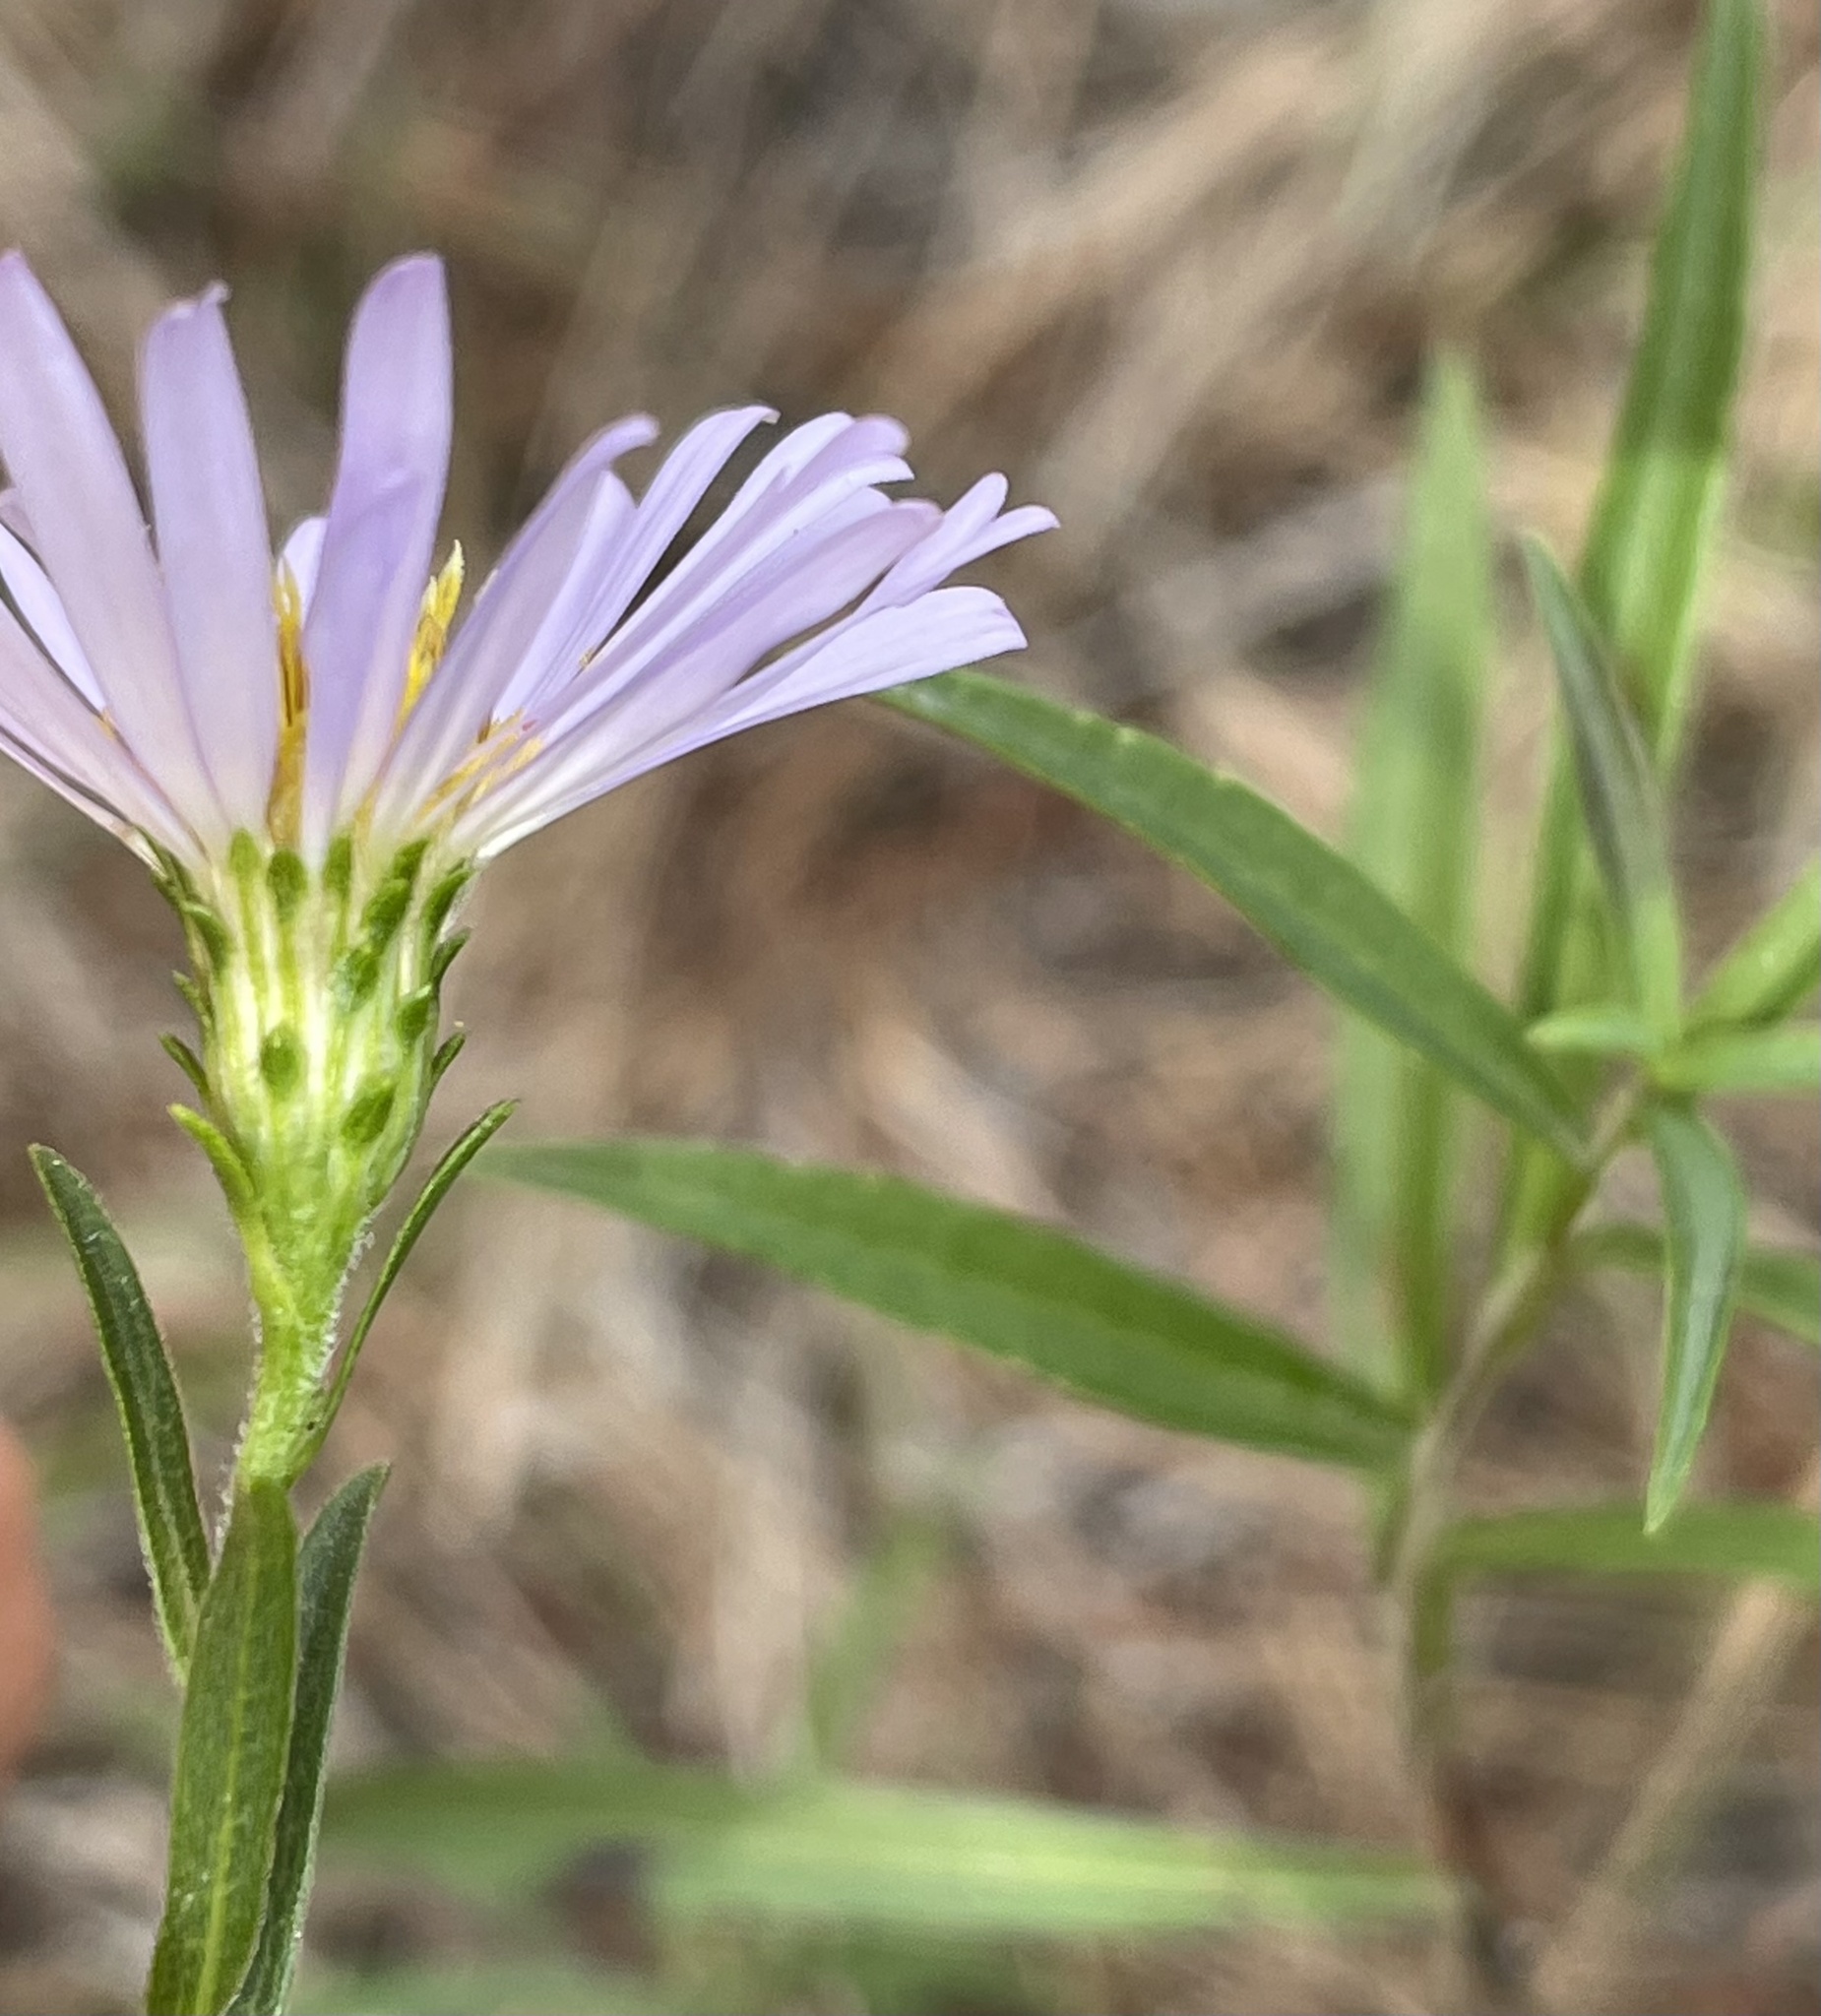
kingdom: Plantae
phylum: Tracheophyta
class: Magnoliopsida
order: Asterales
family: Asteraceae
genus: Symphyotrichum
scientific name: Symphyotrichum chilense
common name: Pacific aster
